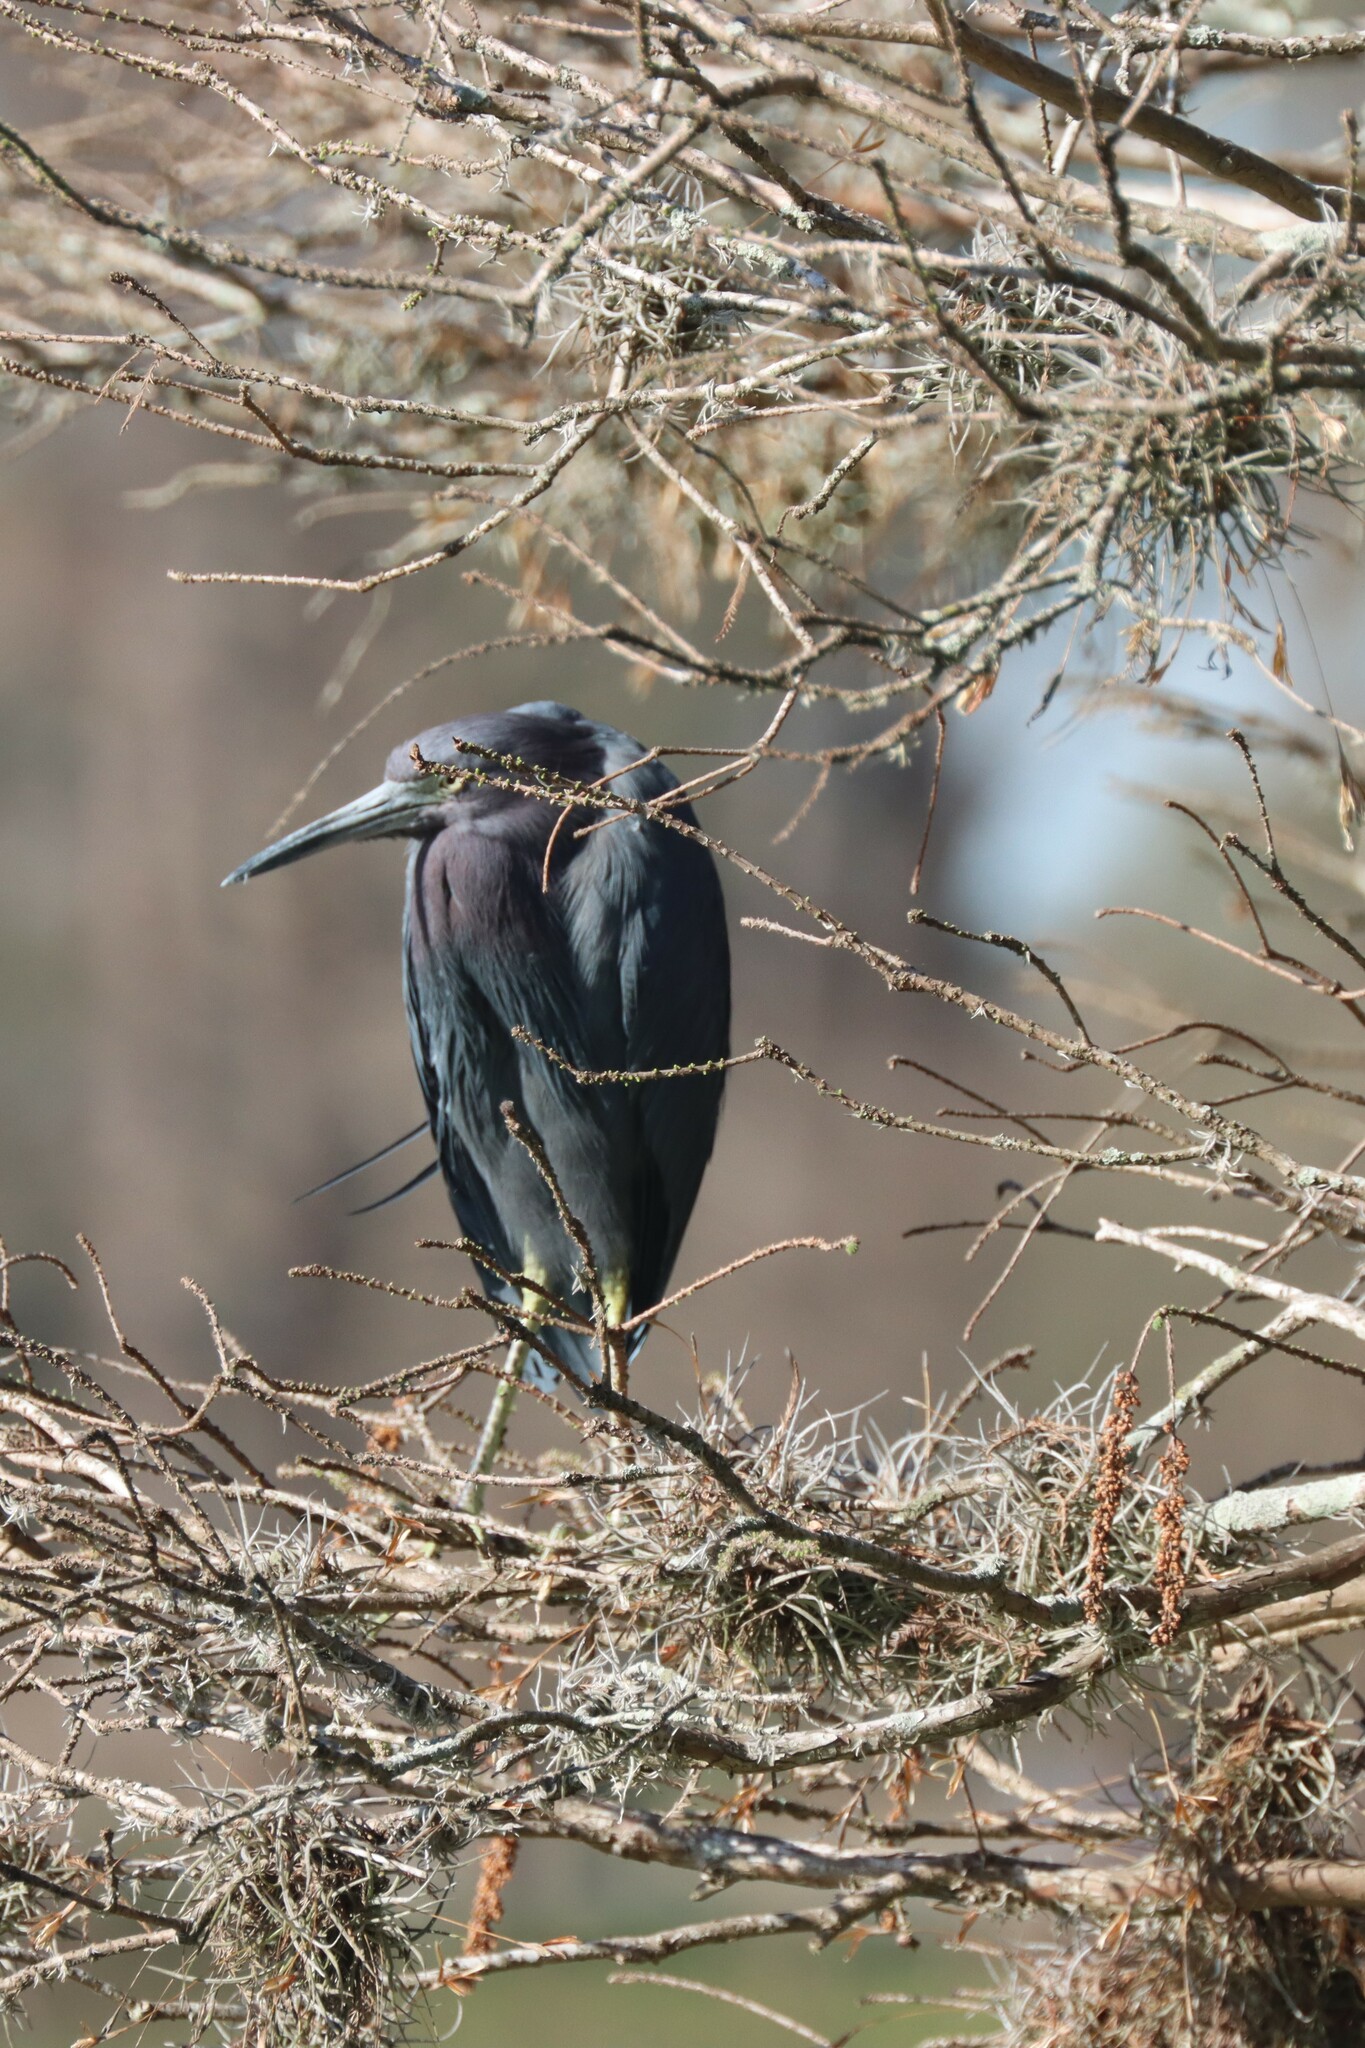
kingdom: Animalia
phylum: Chordata
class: Aves
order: Pelecaniformes
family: Ardeidae
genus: Egretta
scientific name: Egretta caerulea
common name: Little blue heron
